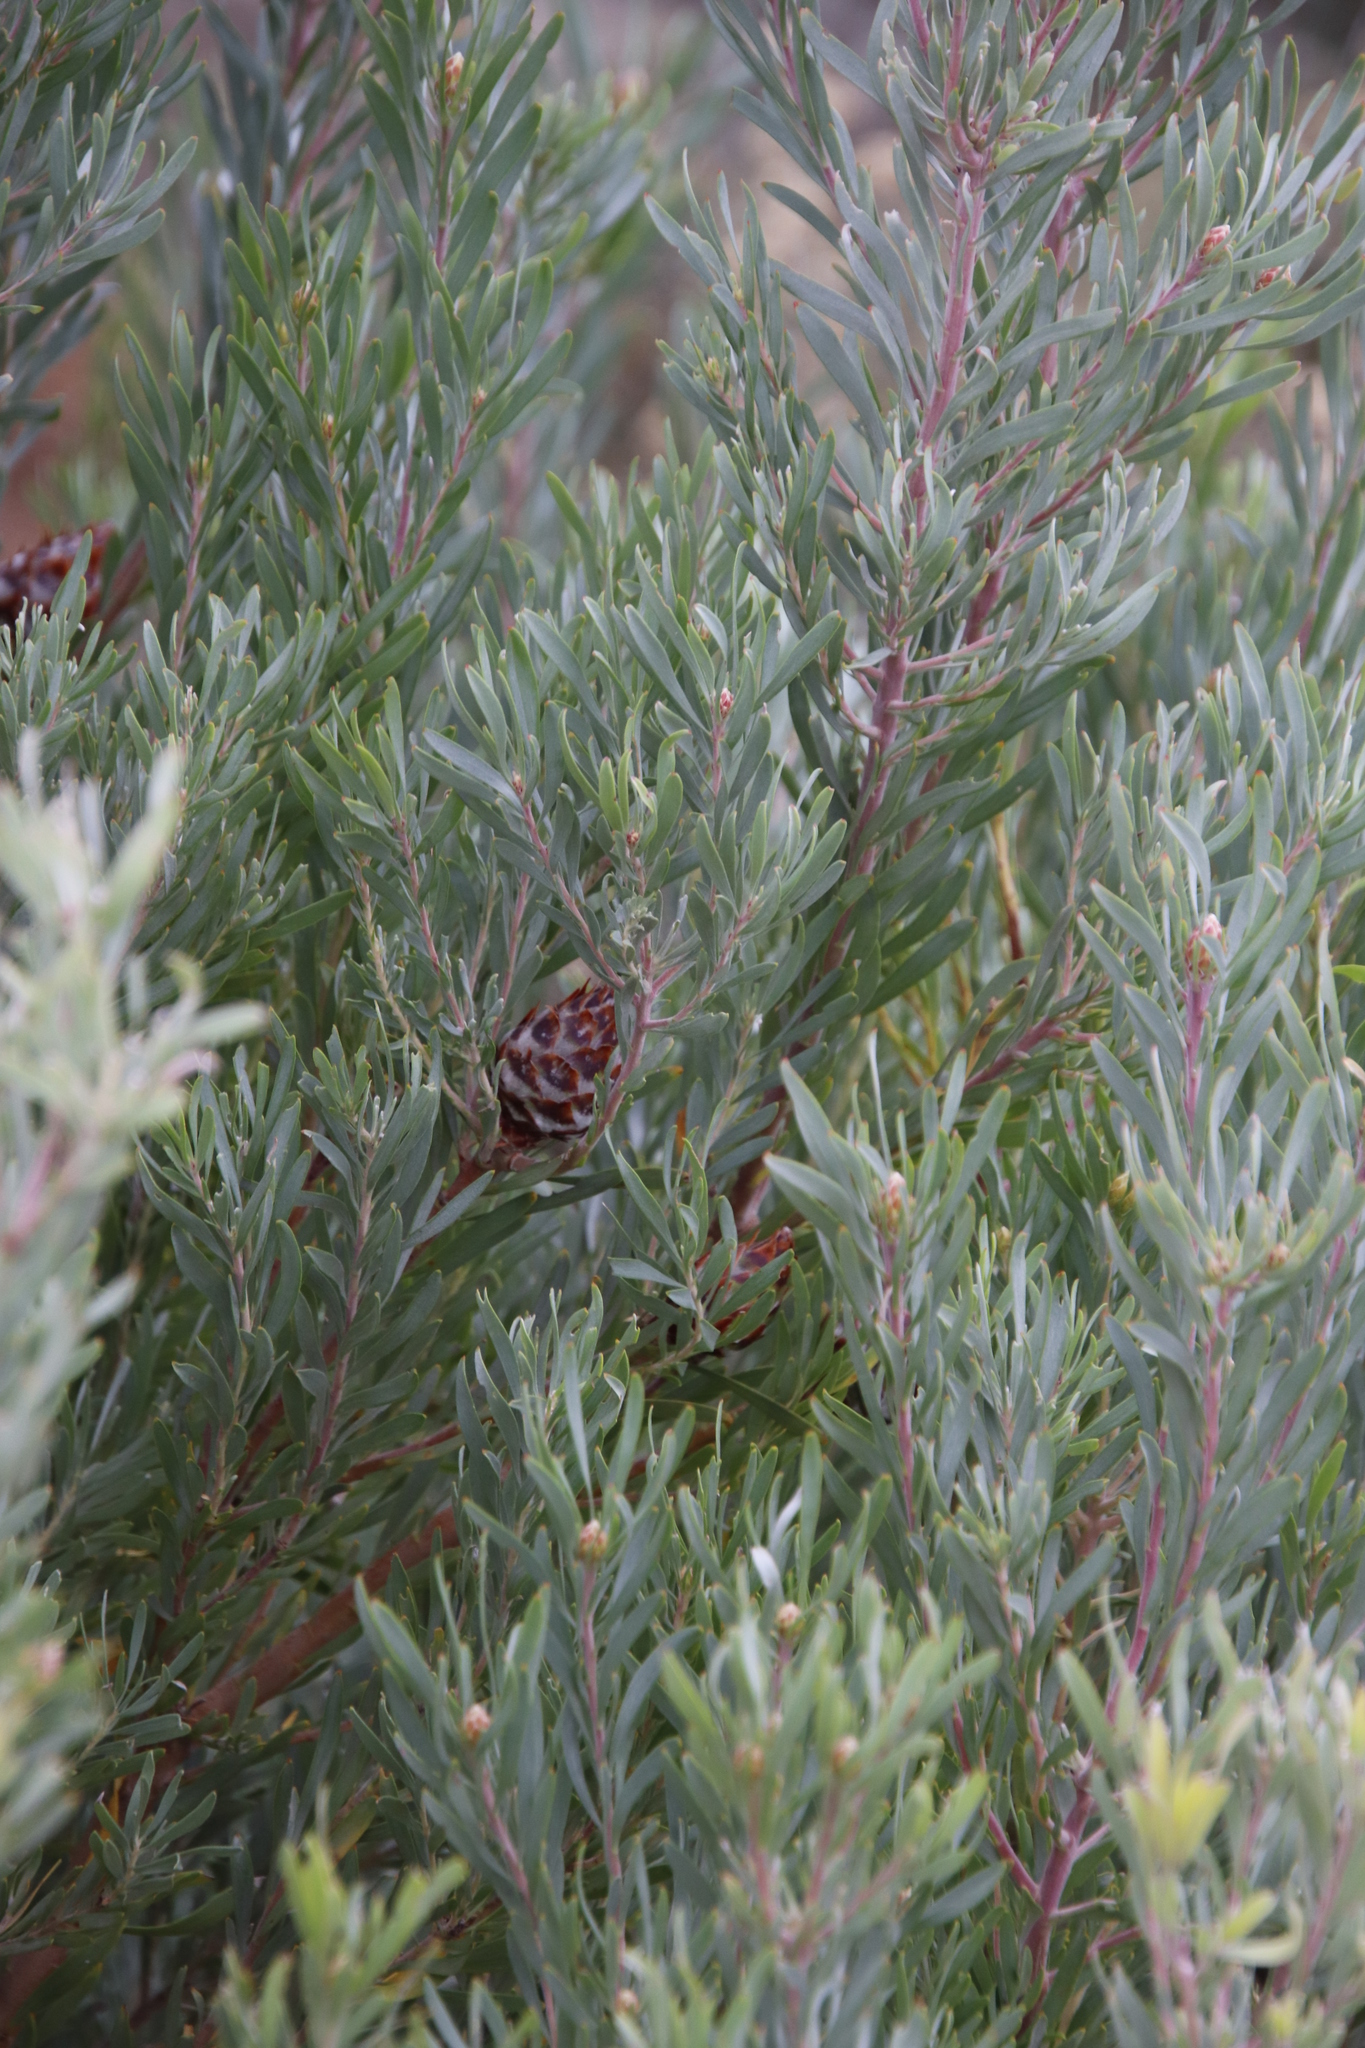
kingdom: Plantae
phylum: Tracheophyta
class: Magnoliopsida
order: Proteales
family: Proteaceae
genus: Leucadendron
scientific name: Leucadendron rubrum
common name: Spinning top
